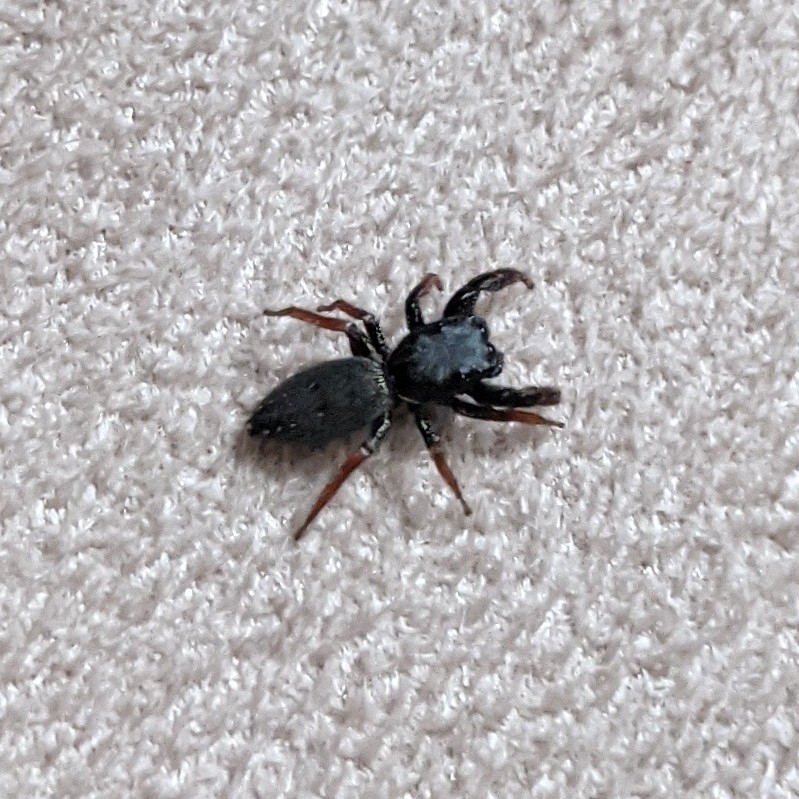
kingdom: Animalia
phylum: Arthropoda
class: Arachnida
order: Araneae
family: Salticidae
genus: Metacyrba
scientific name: Metacyrba taeniola
